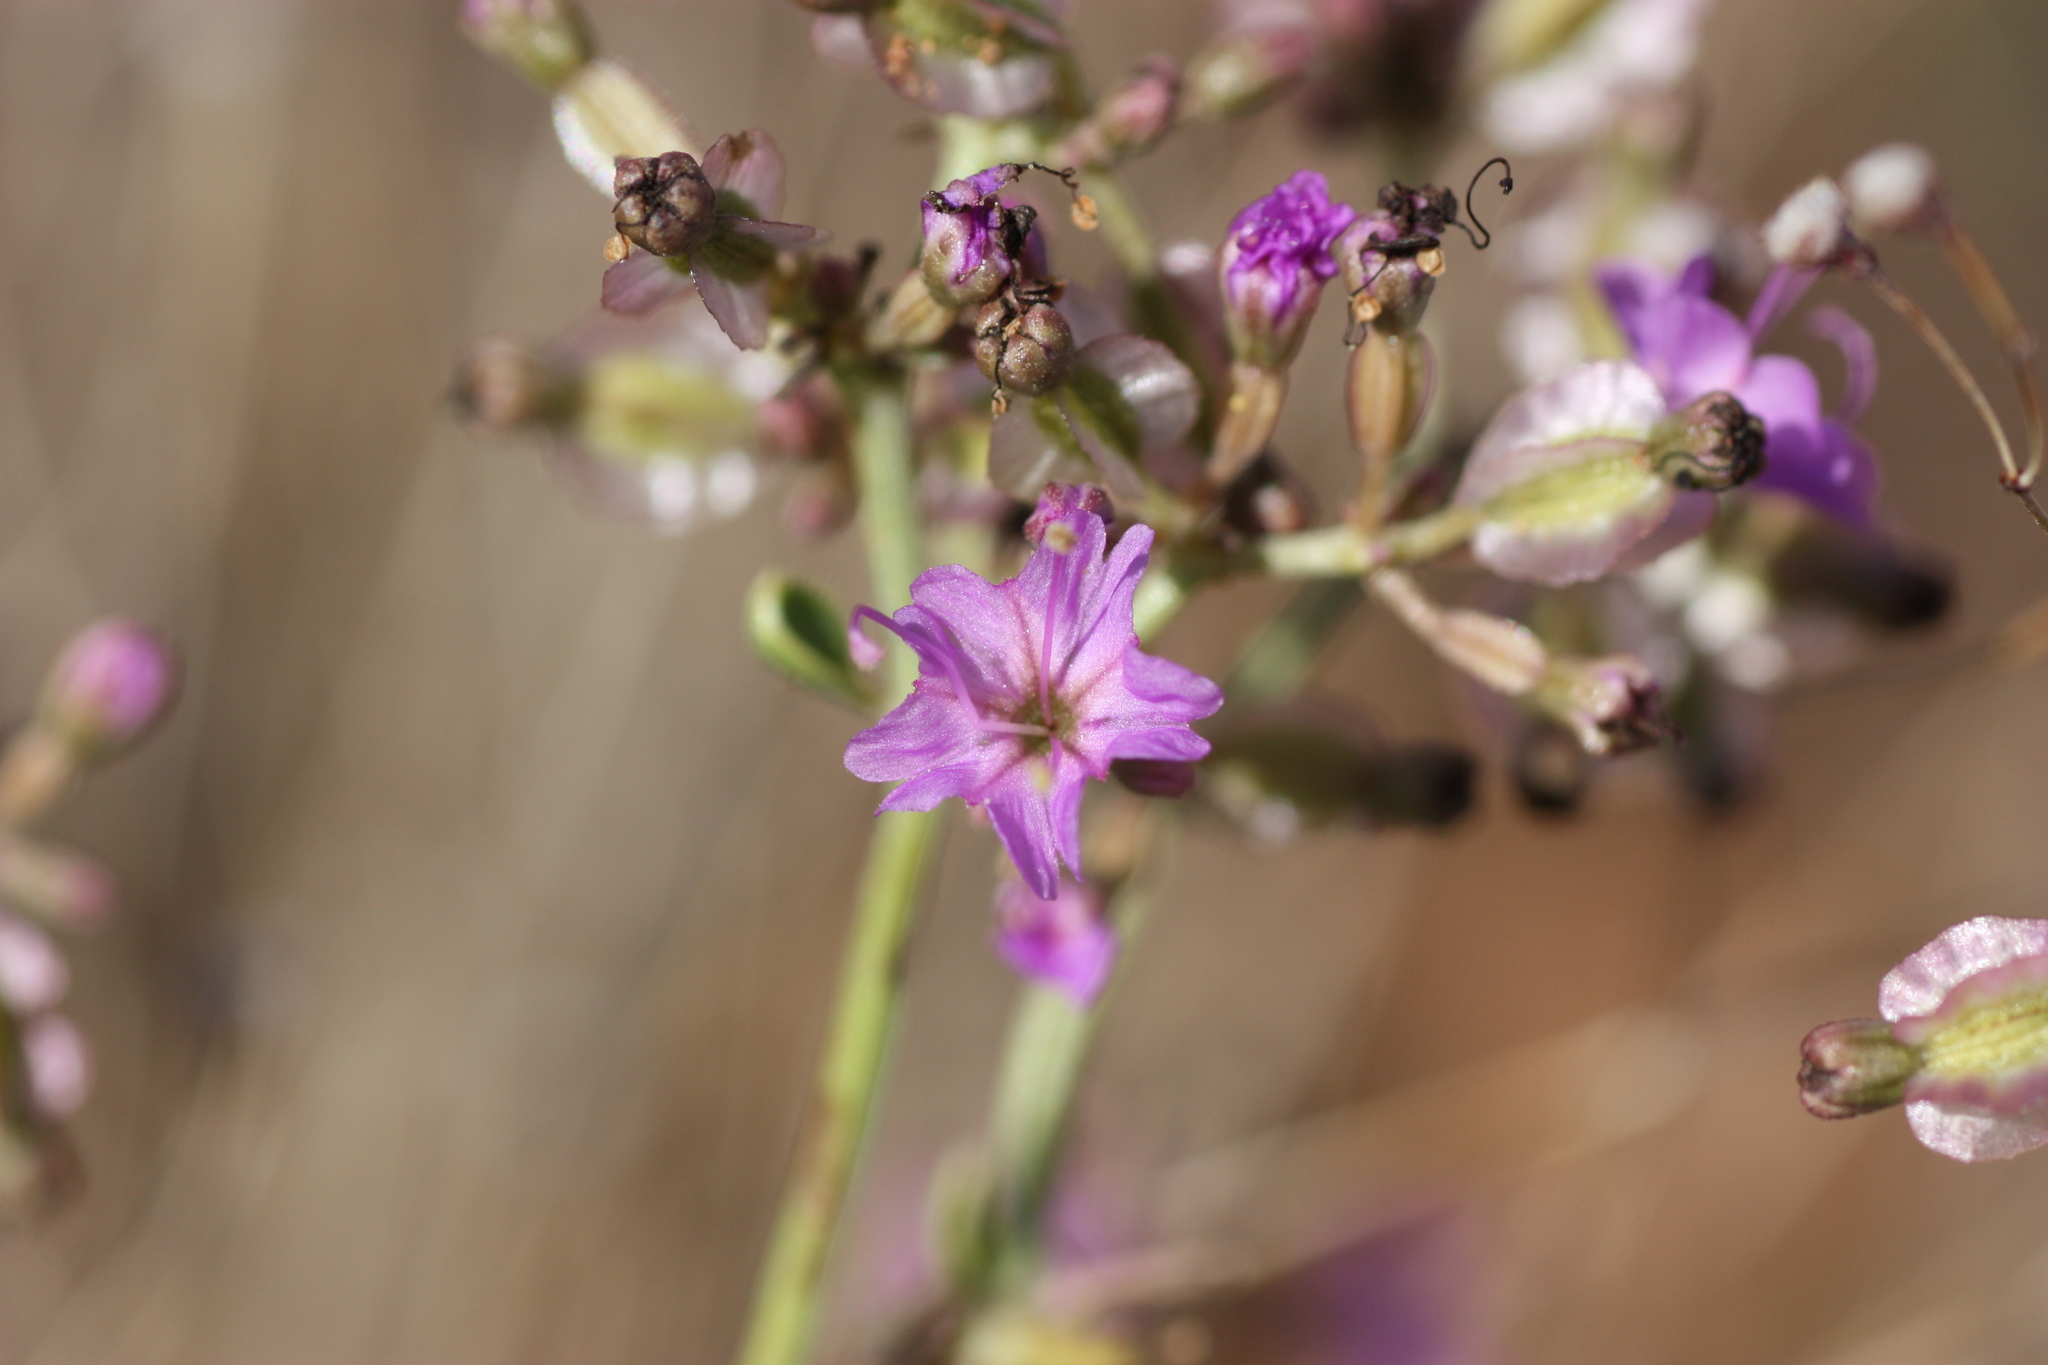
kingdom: Plantae
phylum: Tracheophyta
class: Magnoliopsida
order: Caryophyllales
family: Nyctaginaceae
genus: Acleisanthes
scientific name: Acleisanthes chenopodioides
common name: Goosefoot moonpod
